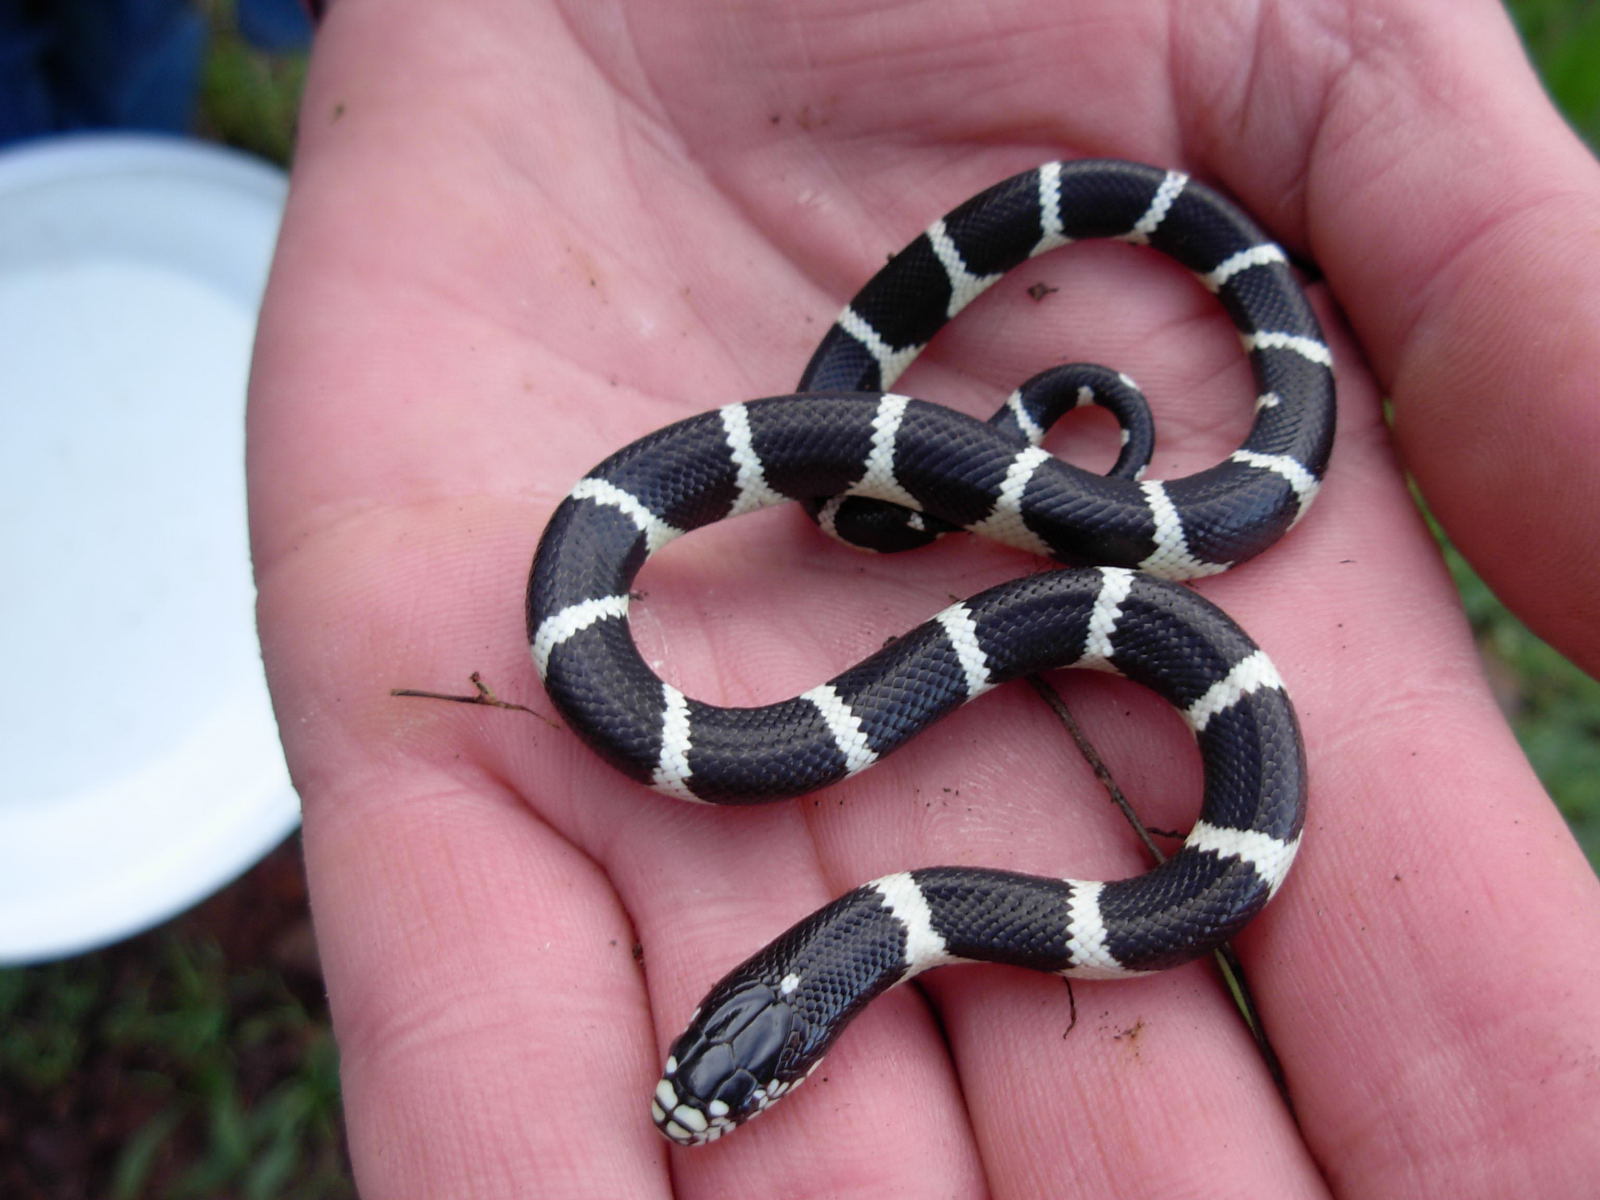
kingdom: Animalia
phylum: Chordata
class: Squamata
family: Colubridae
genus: Lampropeltis
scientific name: Lampropeltis californiae
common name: California kingsnake
